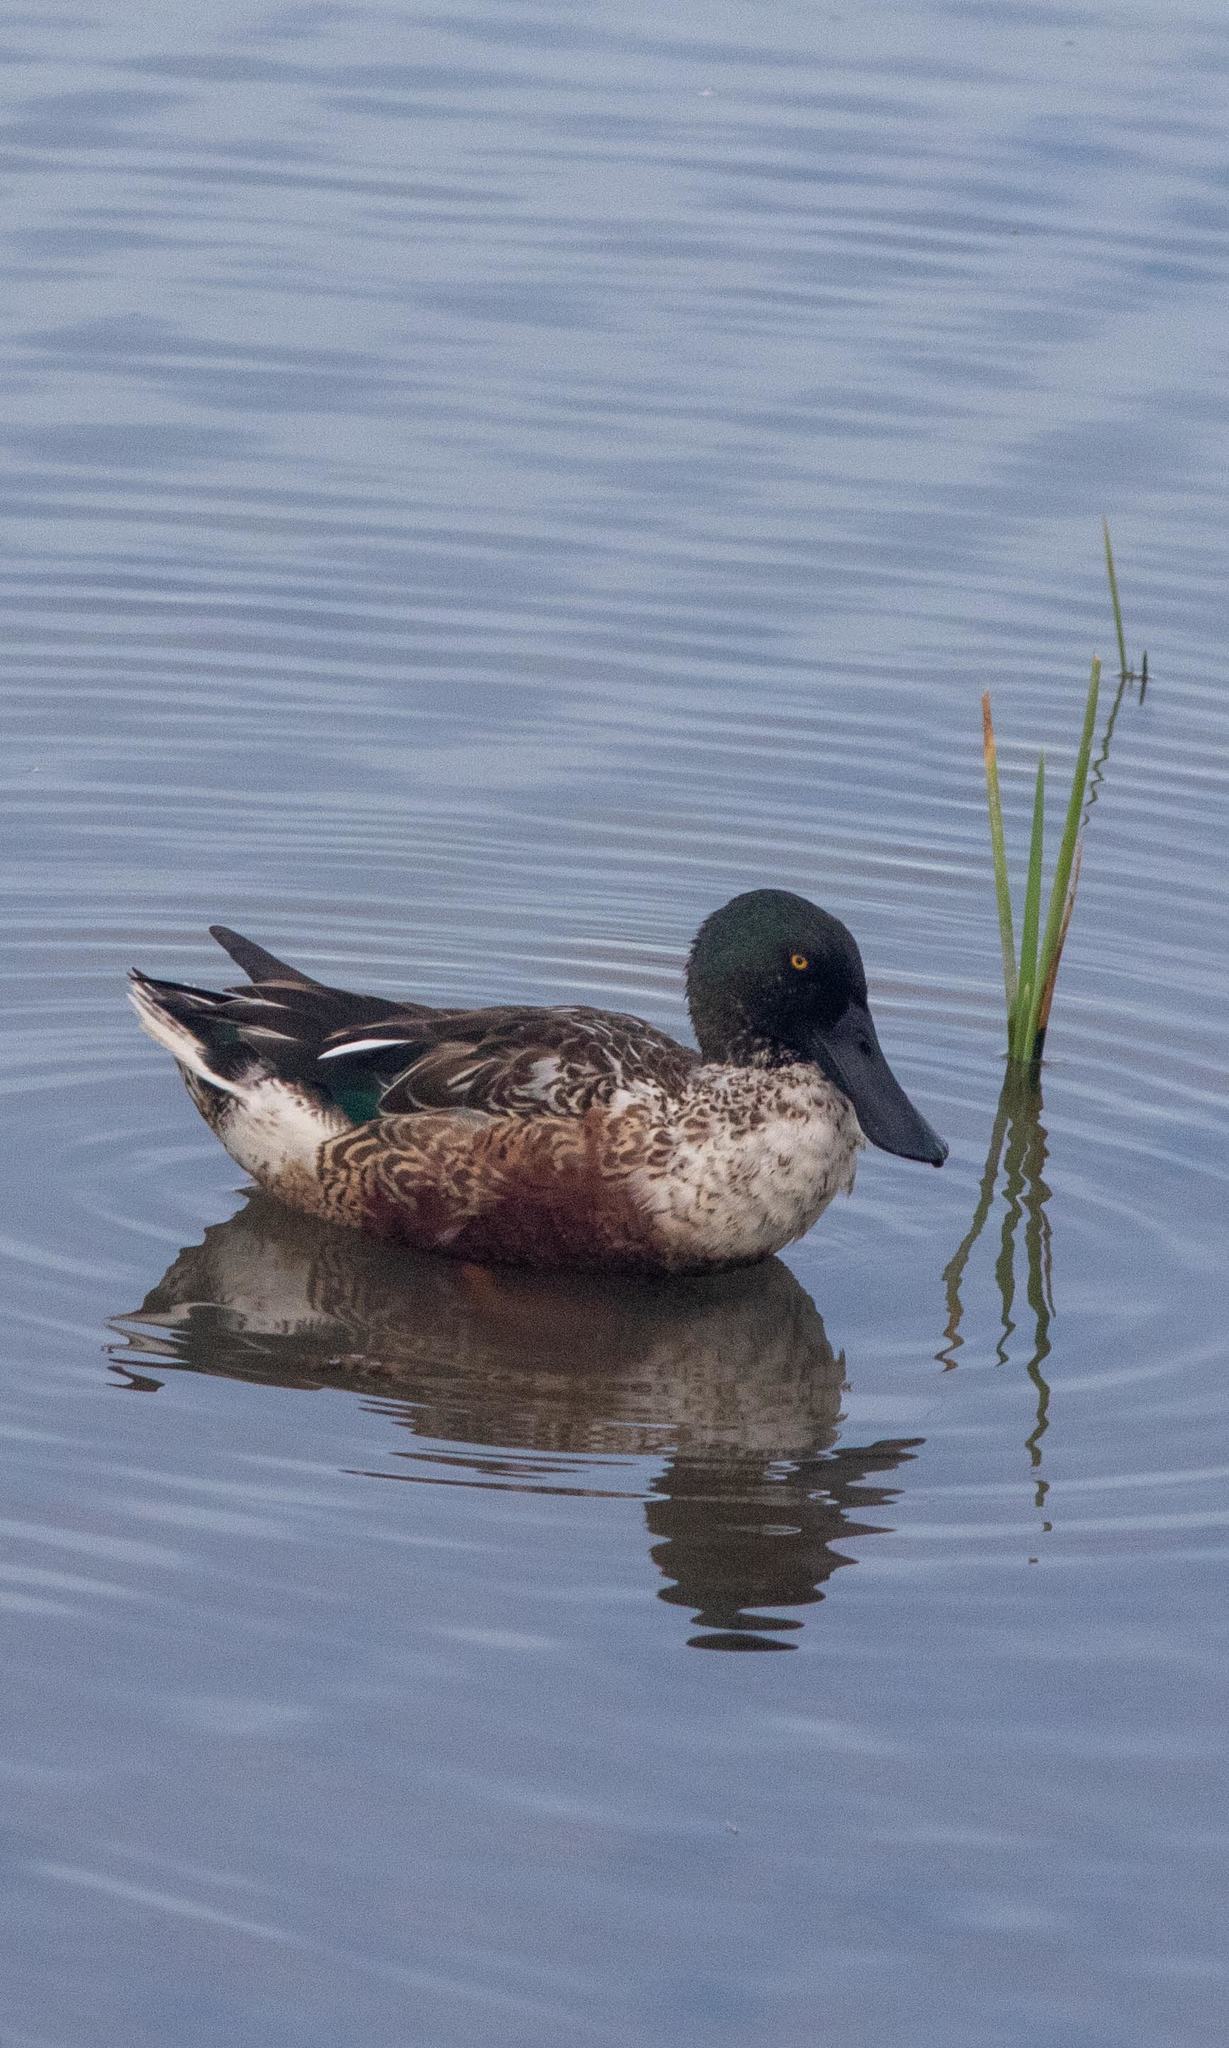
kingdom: Animalia
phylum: Chordata
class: Aves
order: Anseriformes
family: Anatidae
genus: Spatula
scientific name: Spatula clypeata
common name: Northern shoveler
